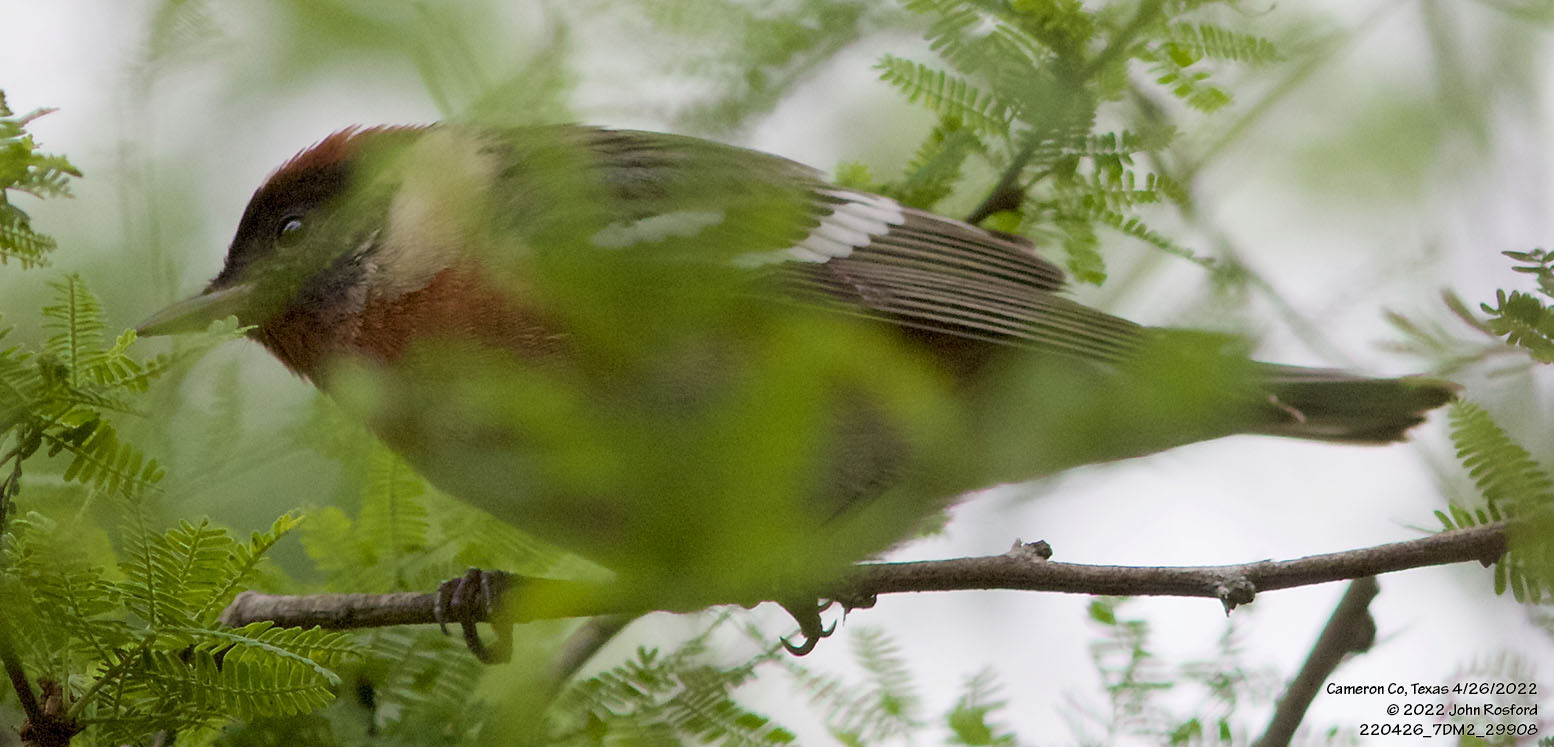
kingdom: Animalia
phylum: Chordata
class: Aves
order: Passeriformes
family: Parulidae
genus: Setophaga
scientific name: Setophaga castanea
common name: Bay-breasted warbler
